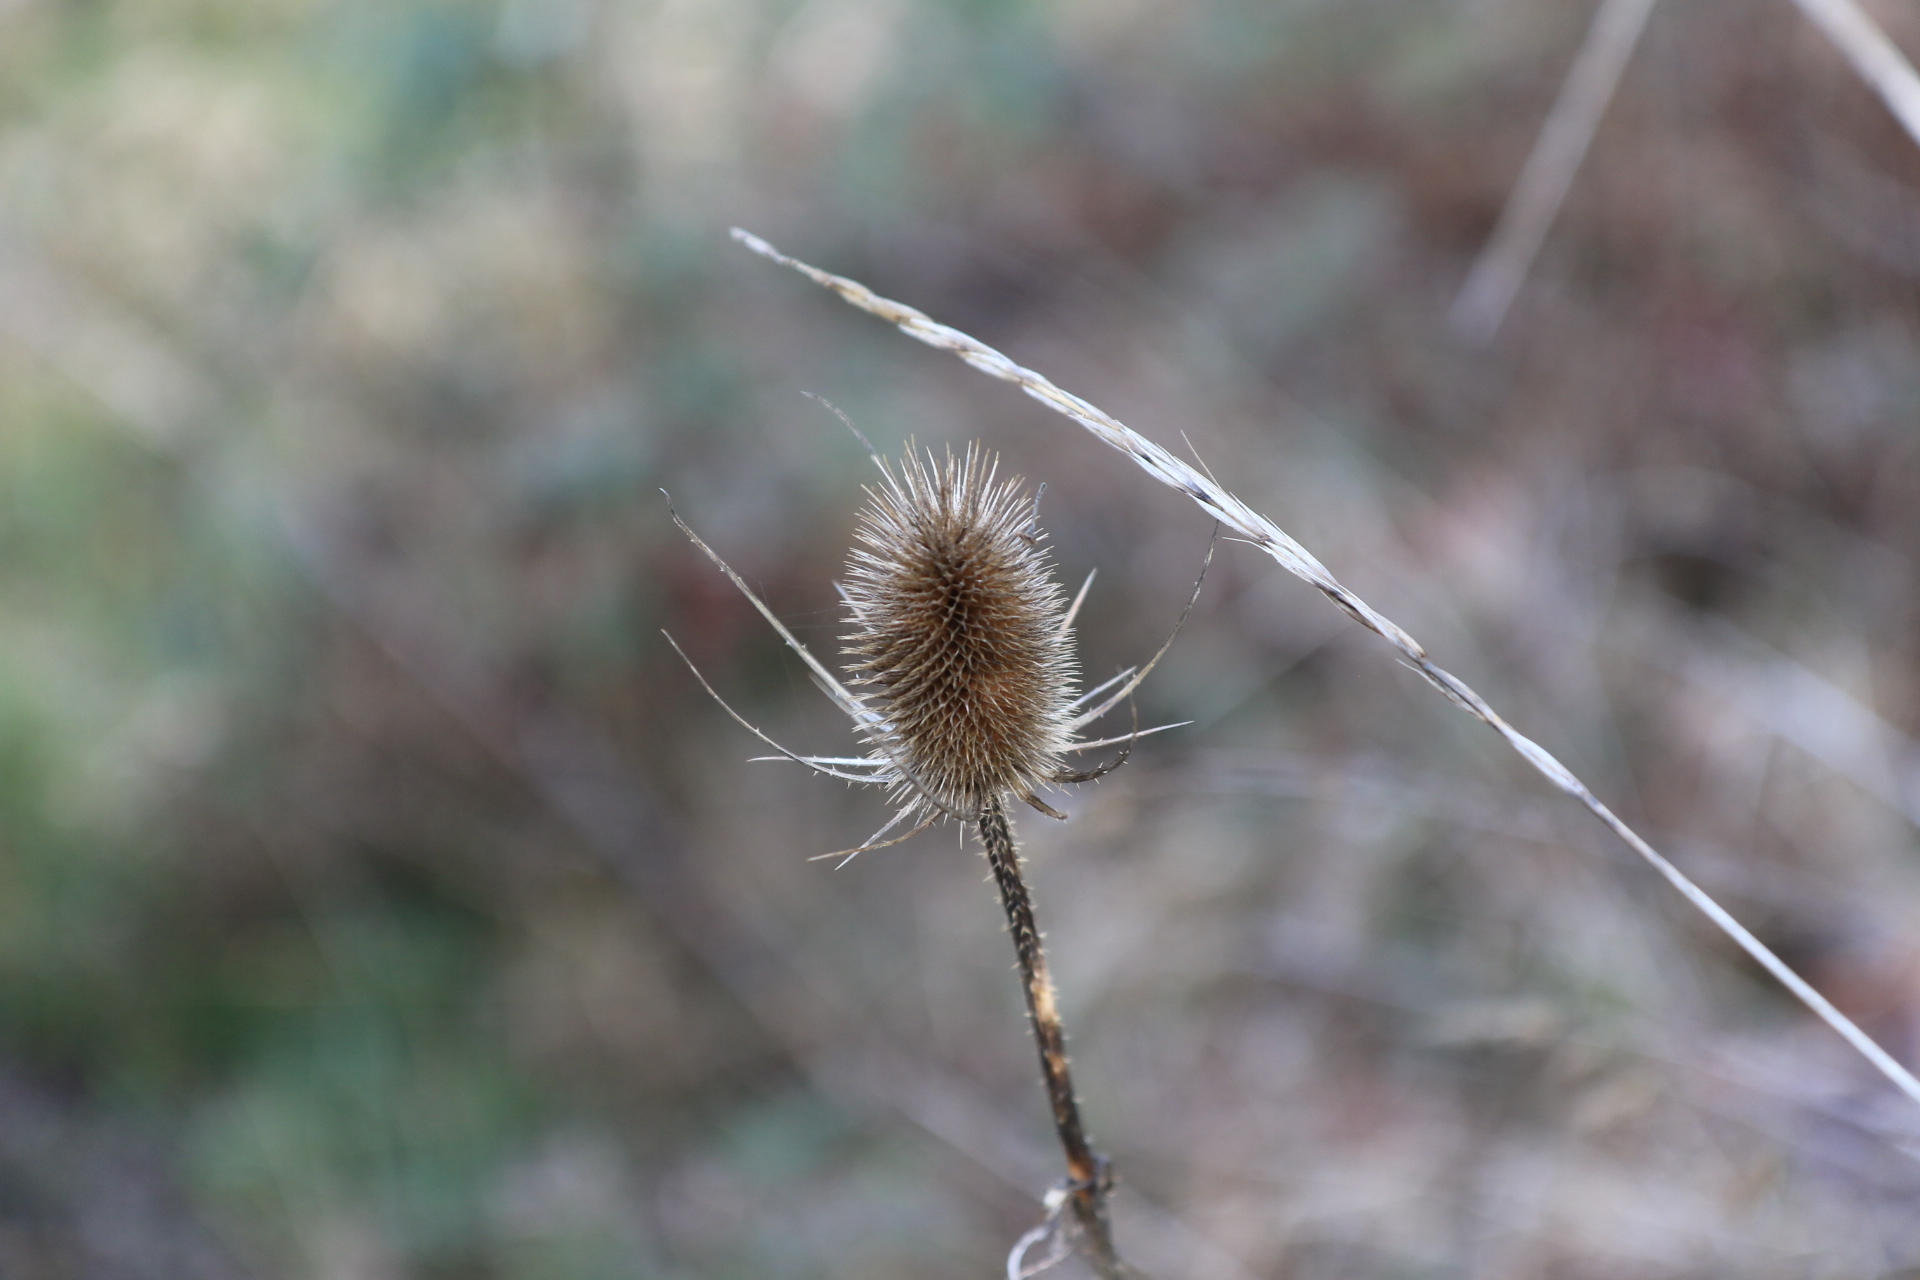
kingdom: Plantae
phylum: Tracheophyta
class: Magnoliopsida
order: Dipsacales
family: Caprifoliaceae
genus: Dipsacus
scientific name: Dipsacus fullonum
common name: Teasel
